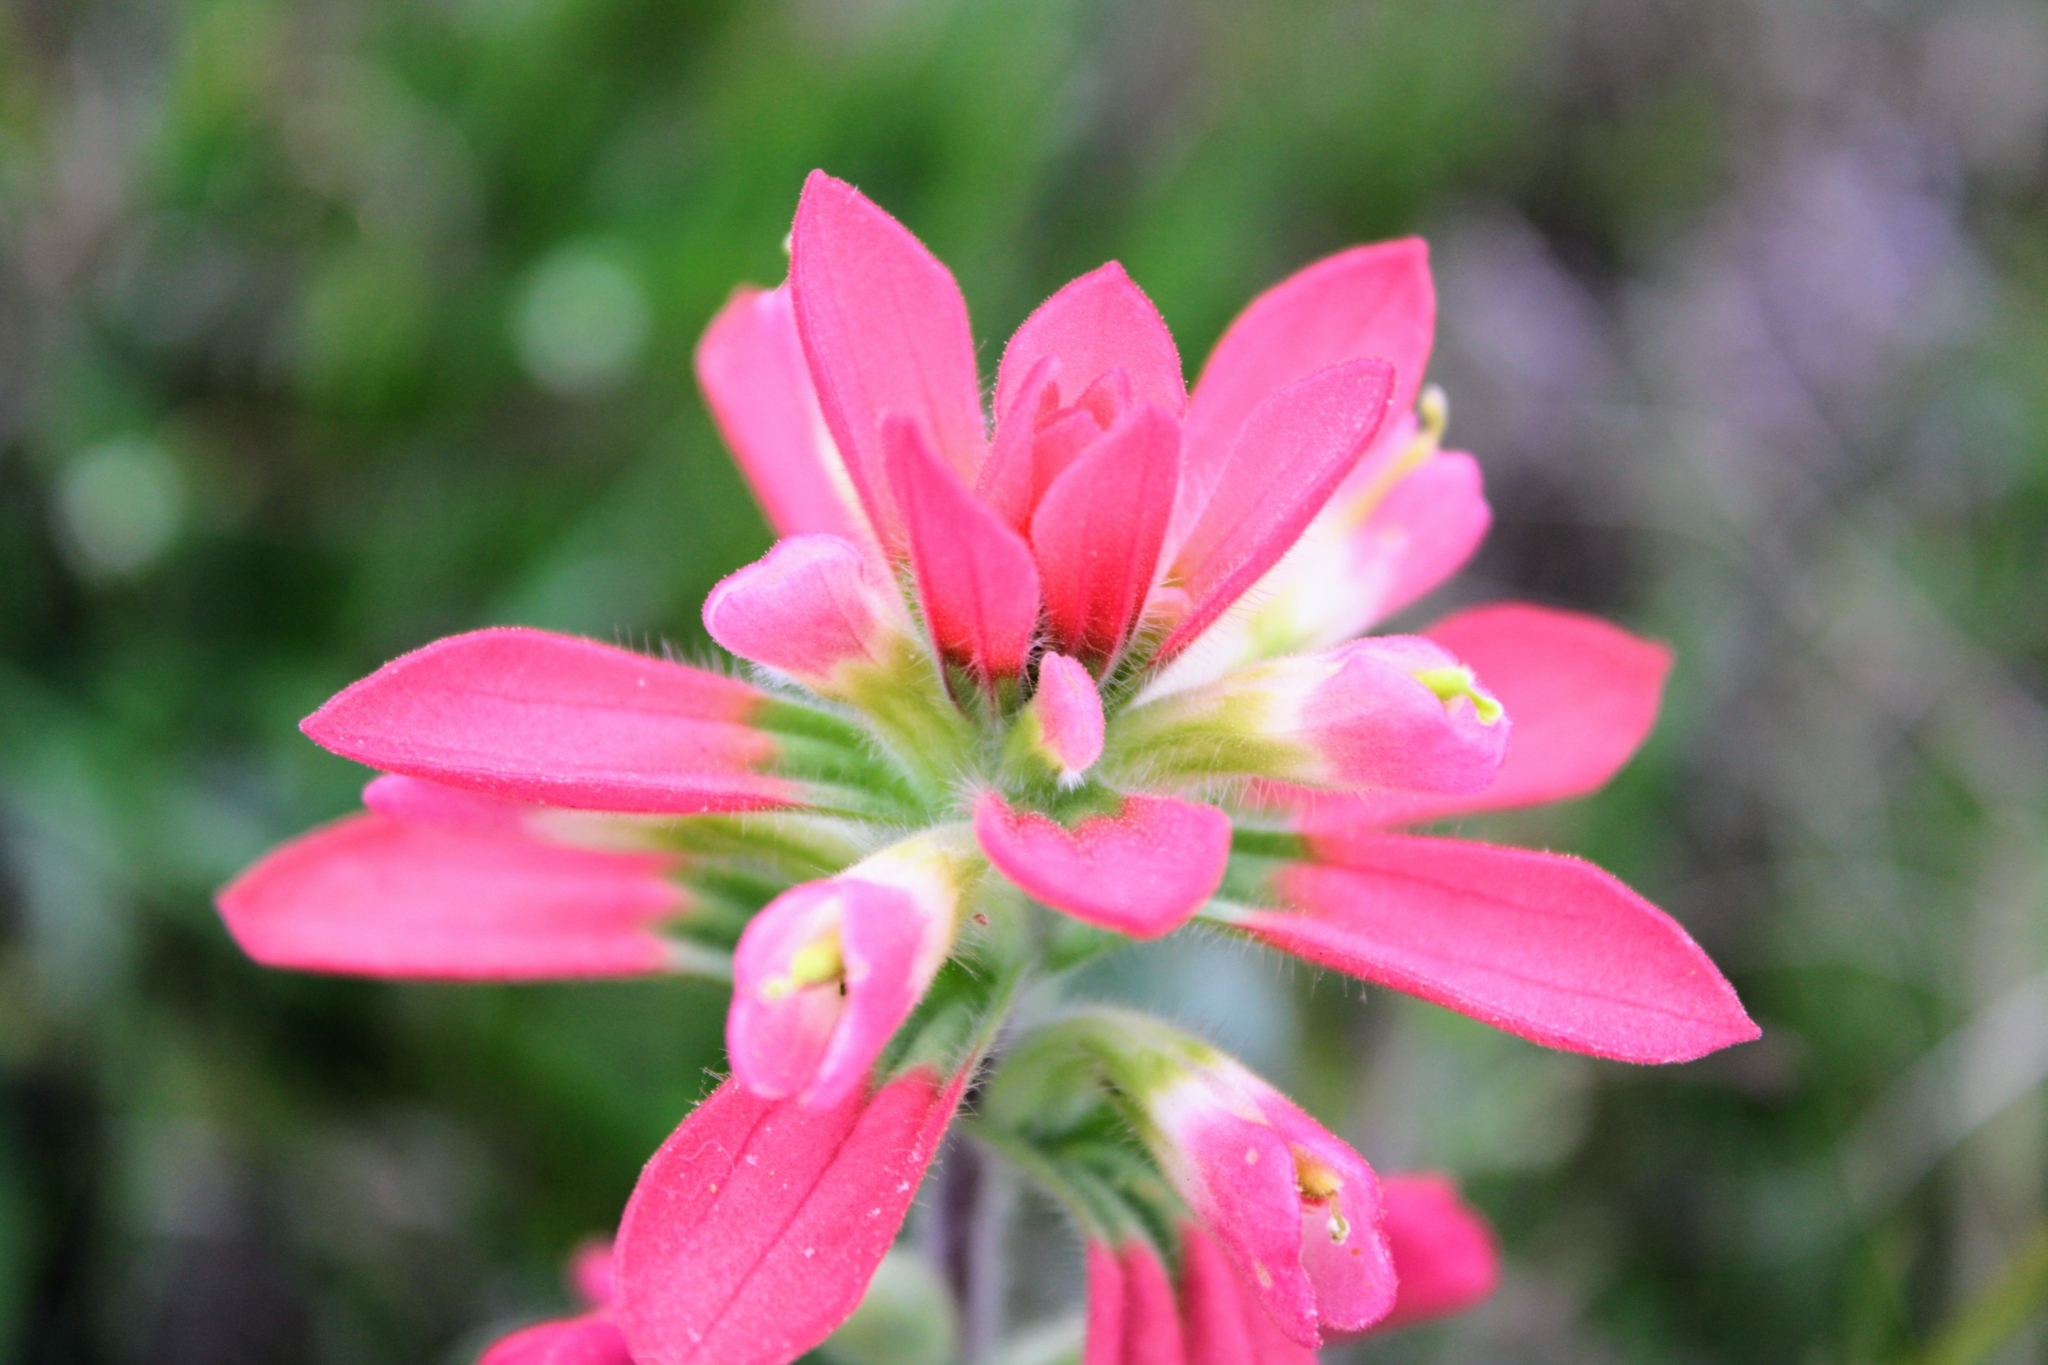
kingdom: Plantae
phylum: Tracheophyta
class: Magnoliopsida
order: Lamiales
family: Orobanchaceae
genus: Castilleja
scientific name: Castilleja indivisa
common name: Texas paintbrush
